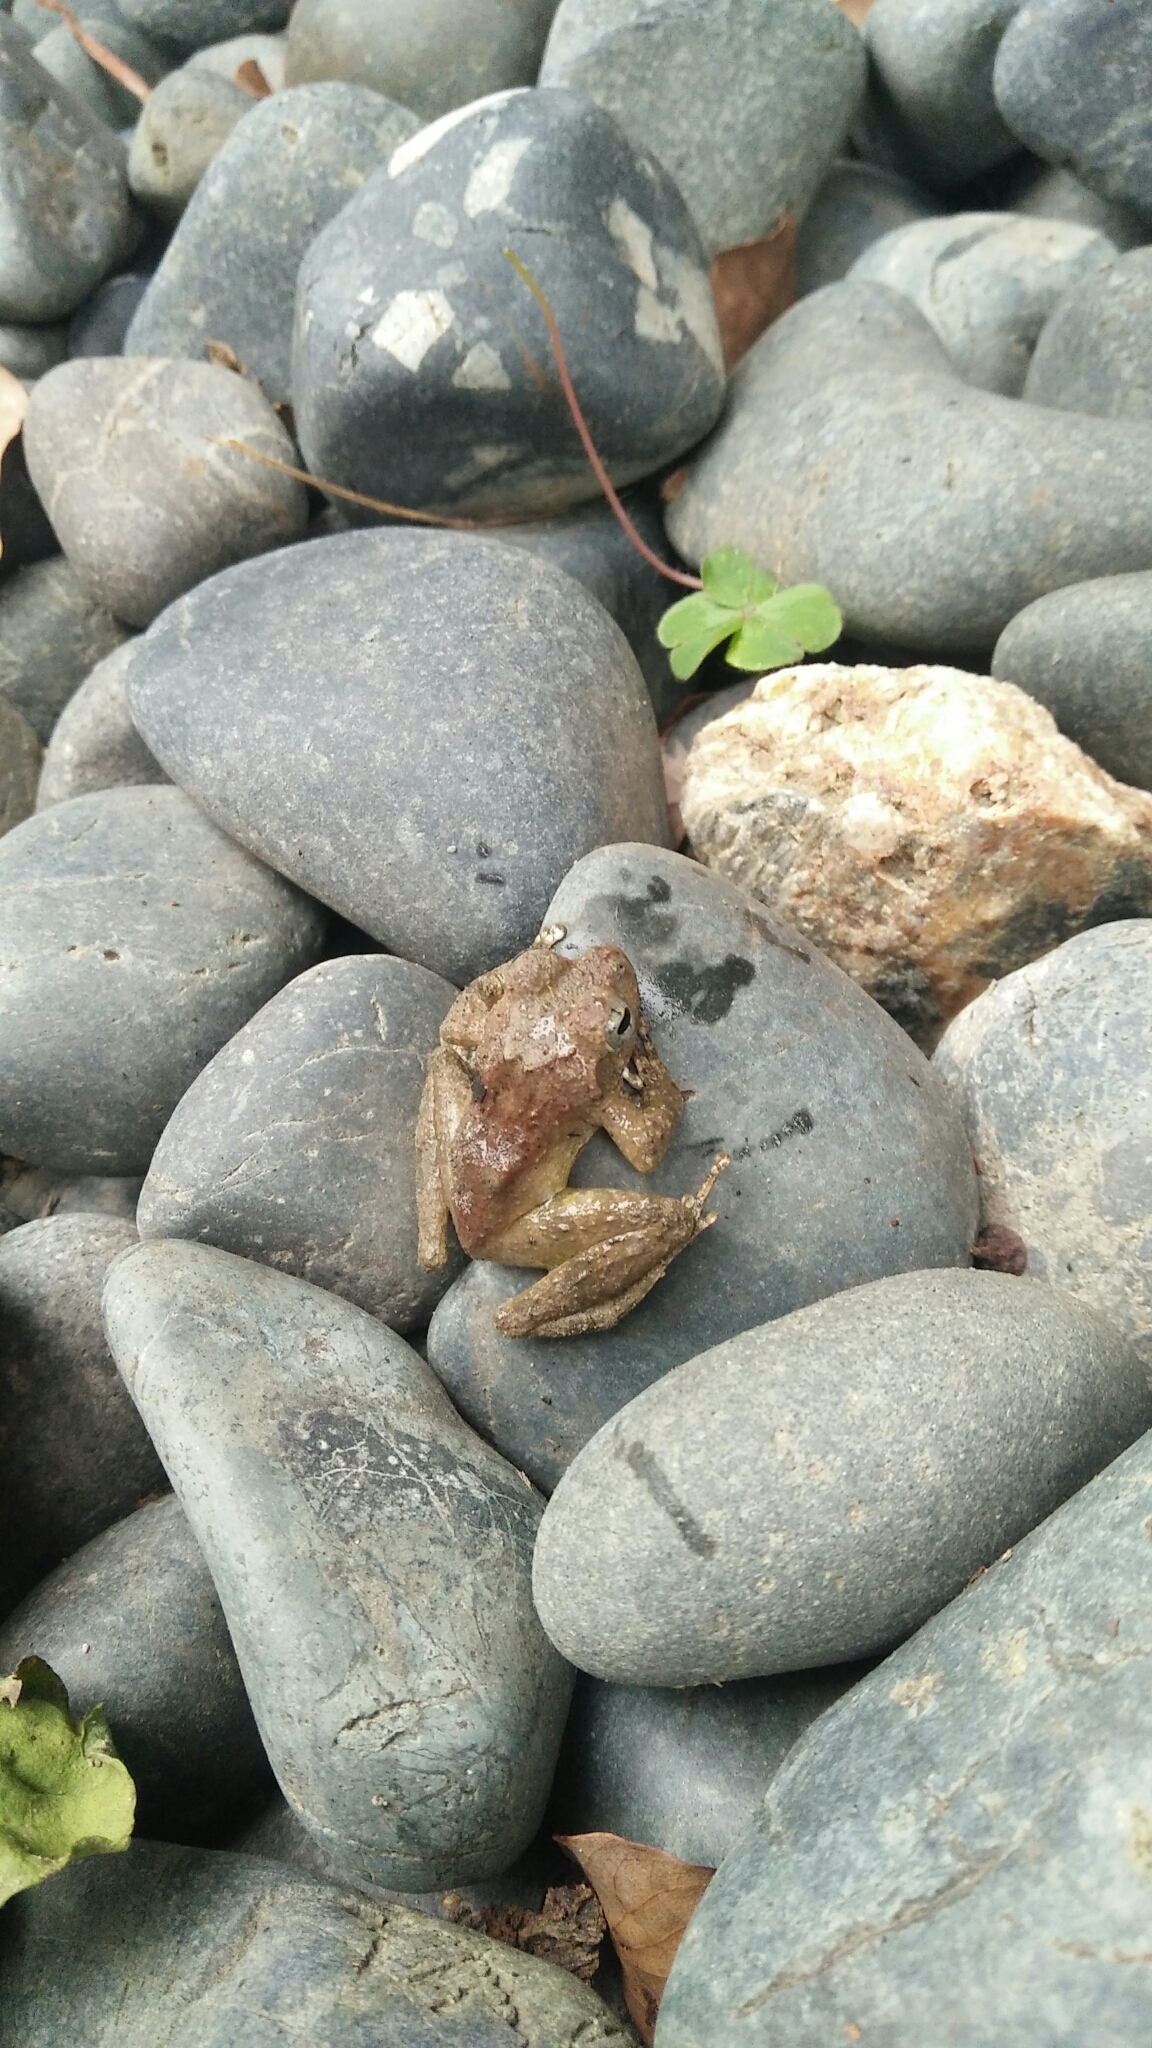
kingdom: Animalia
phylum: Chordata
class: Amphibia
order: Anura
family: Rhacophoridae
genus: Buergeria
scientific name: Buergeria otai
